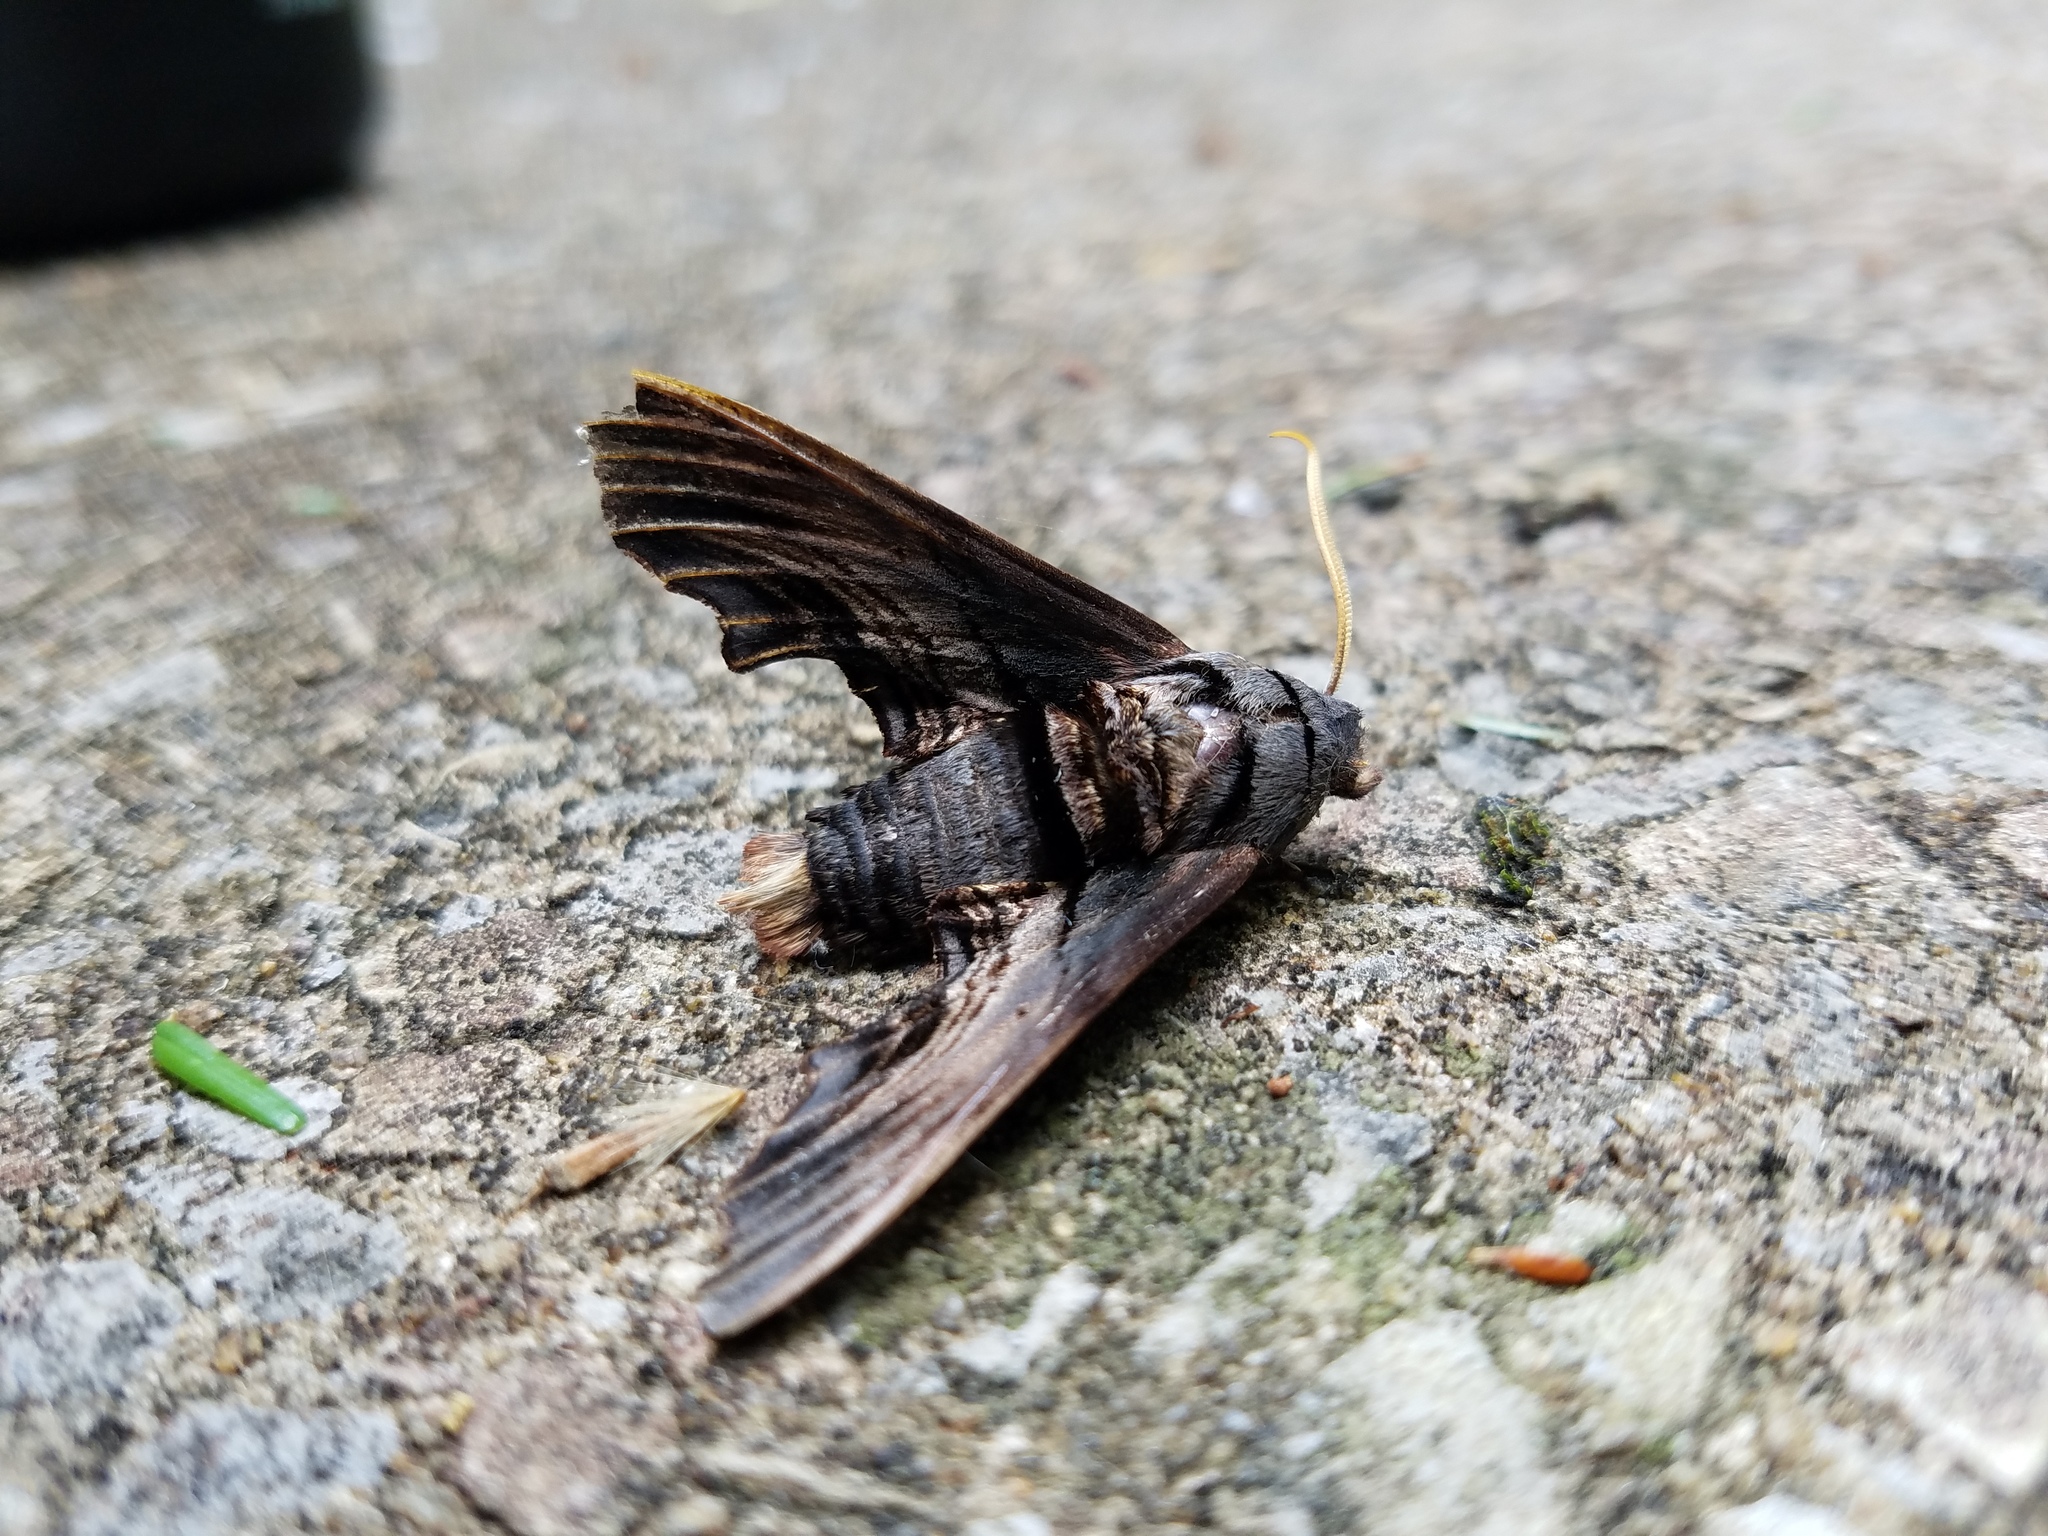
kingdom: Animalia
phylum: Arthropoda
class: Insecta
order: Lepidoptera
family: Sphingidae
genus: Sphecodina
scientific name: Sphecodina abbottii
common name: Abbott's sphinx
